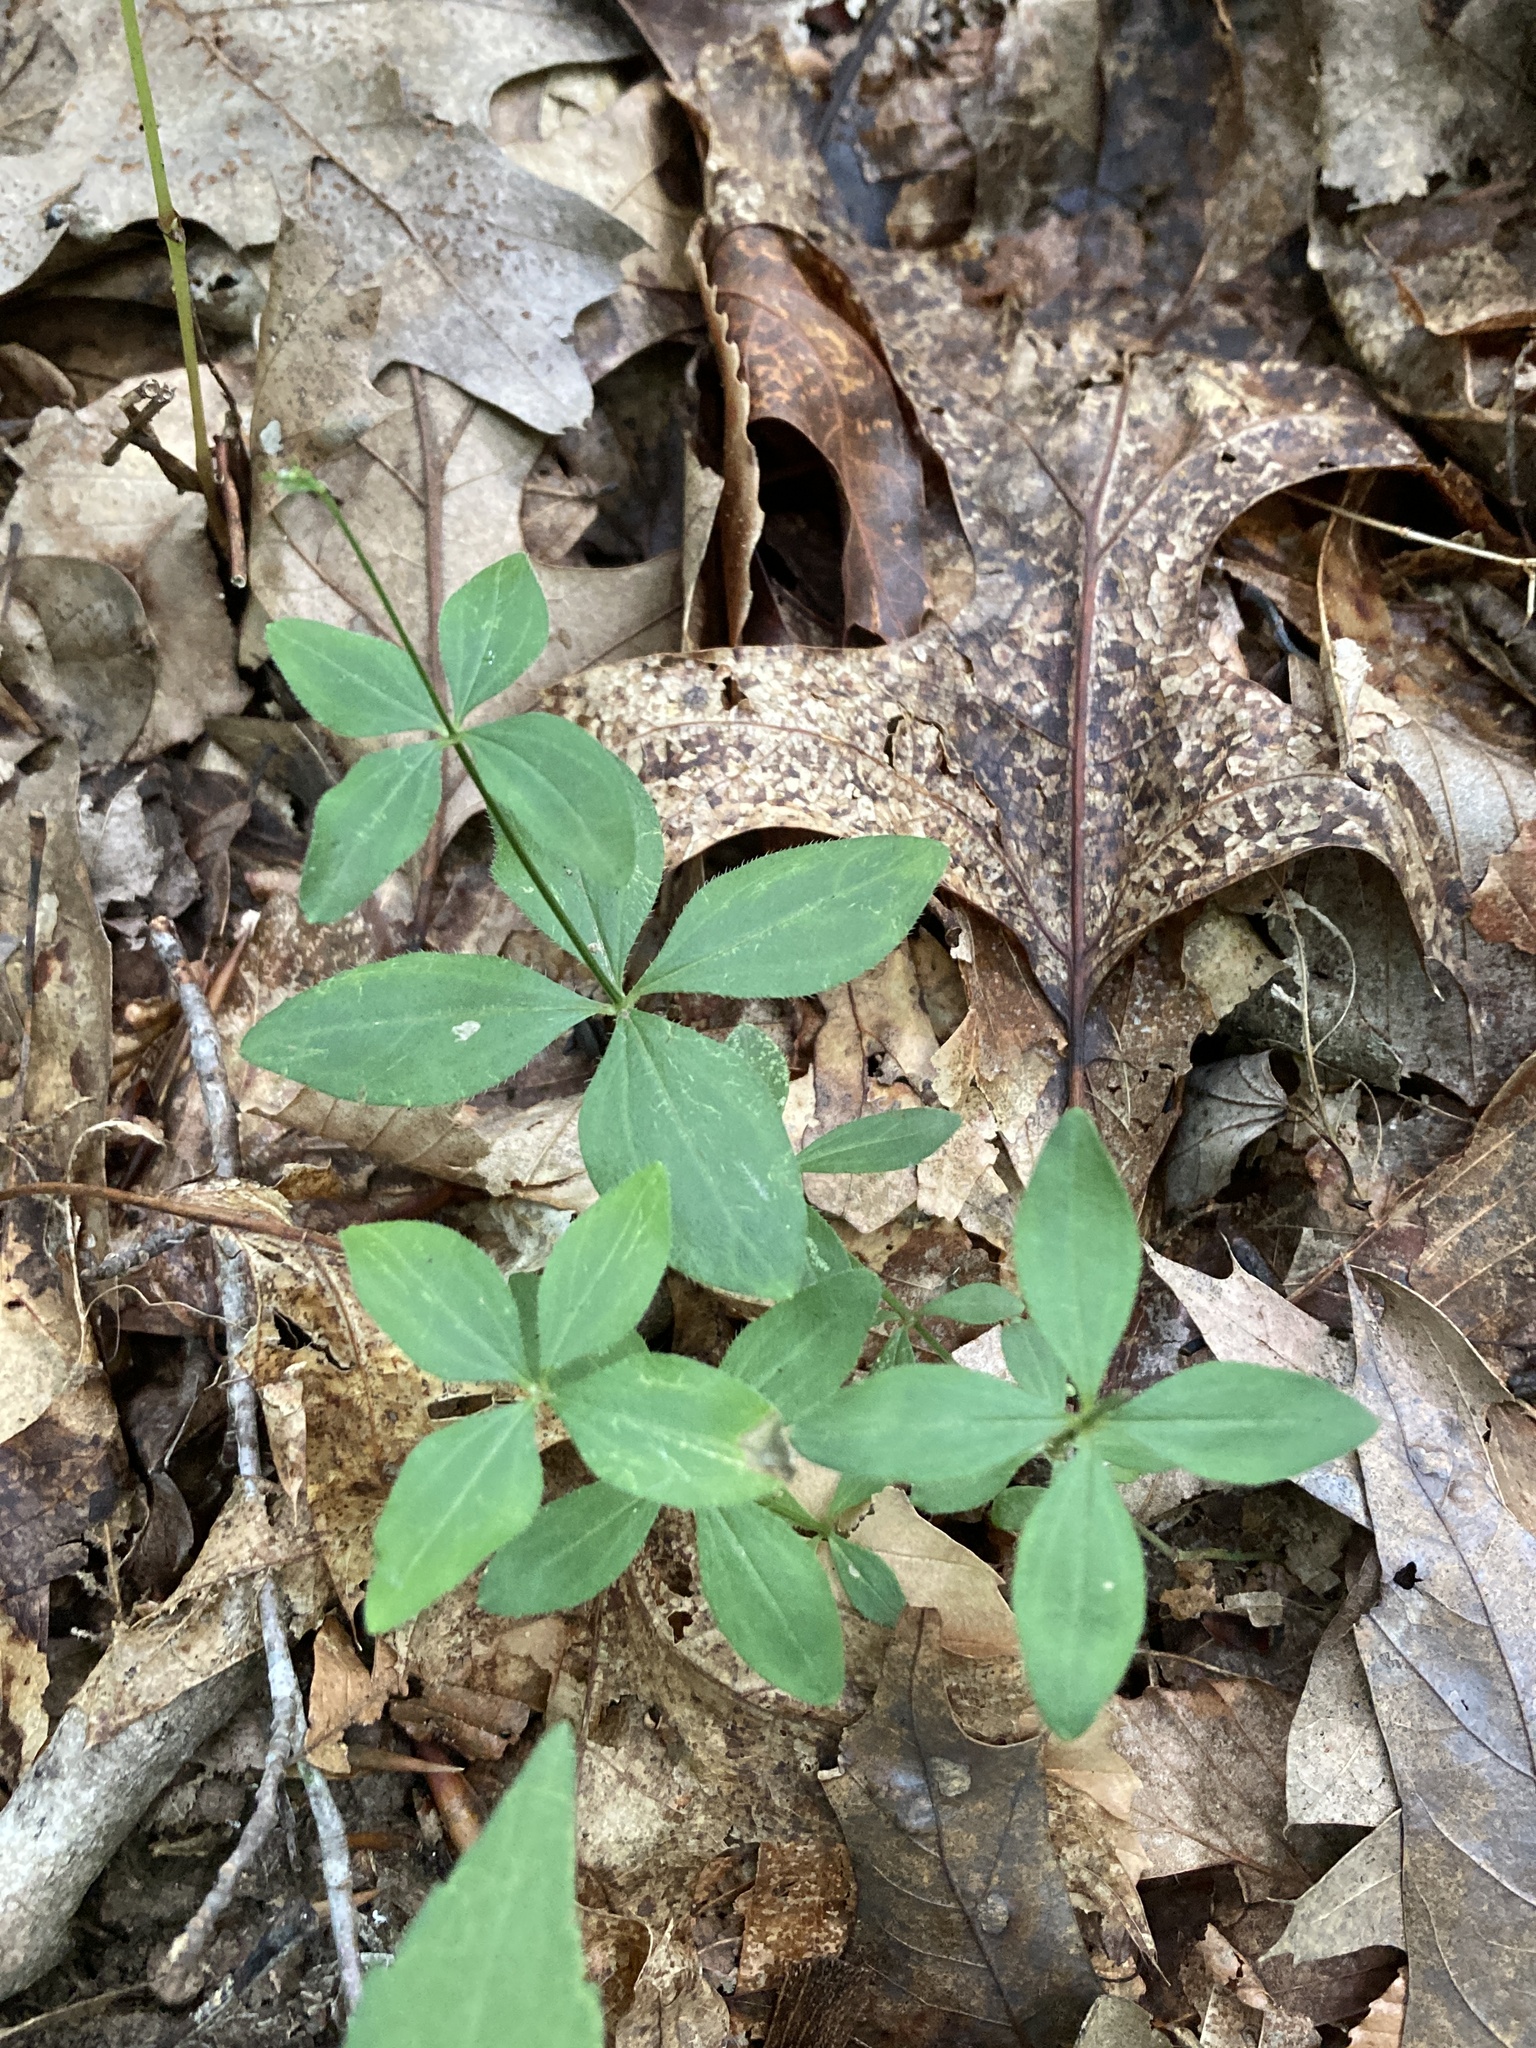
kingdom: Plantae
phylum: Tracheophyta
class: Magnoliopsida
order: Gentianales
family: Rubiaceae
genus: Galium
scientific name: Galium circaezans
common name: Forest bedstraw
